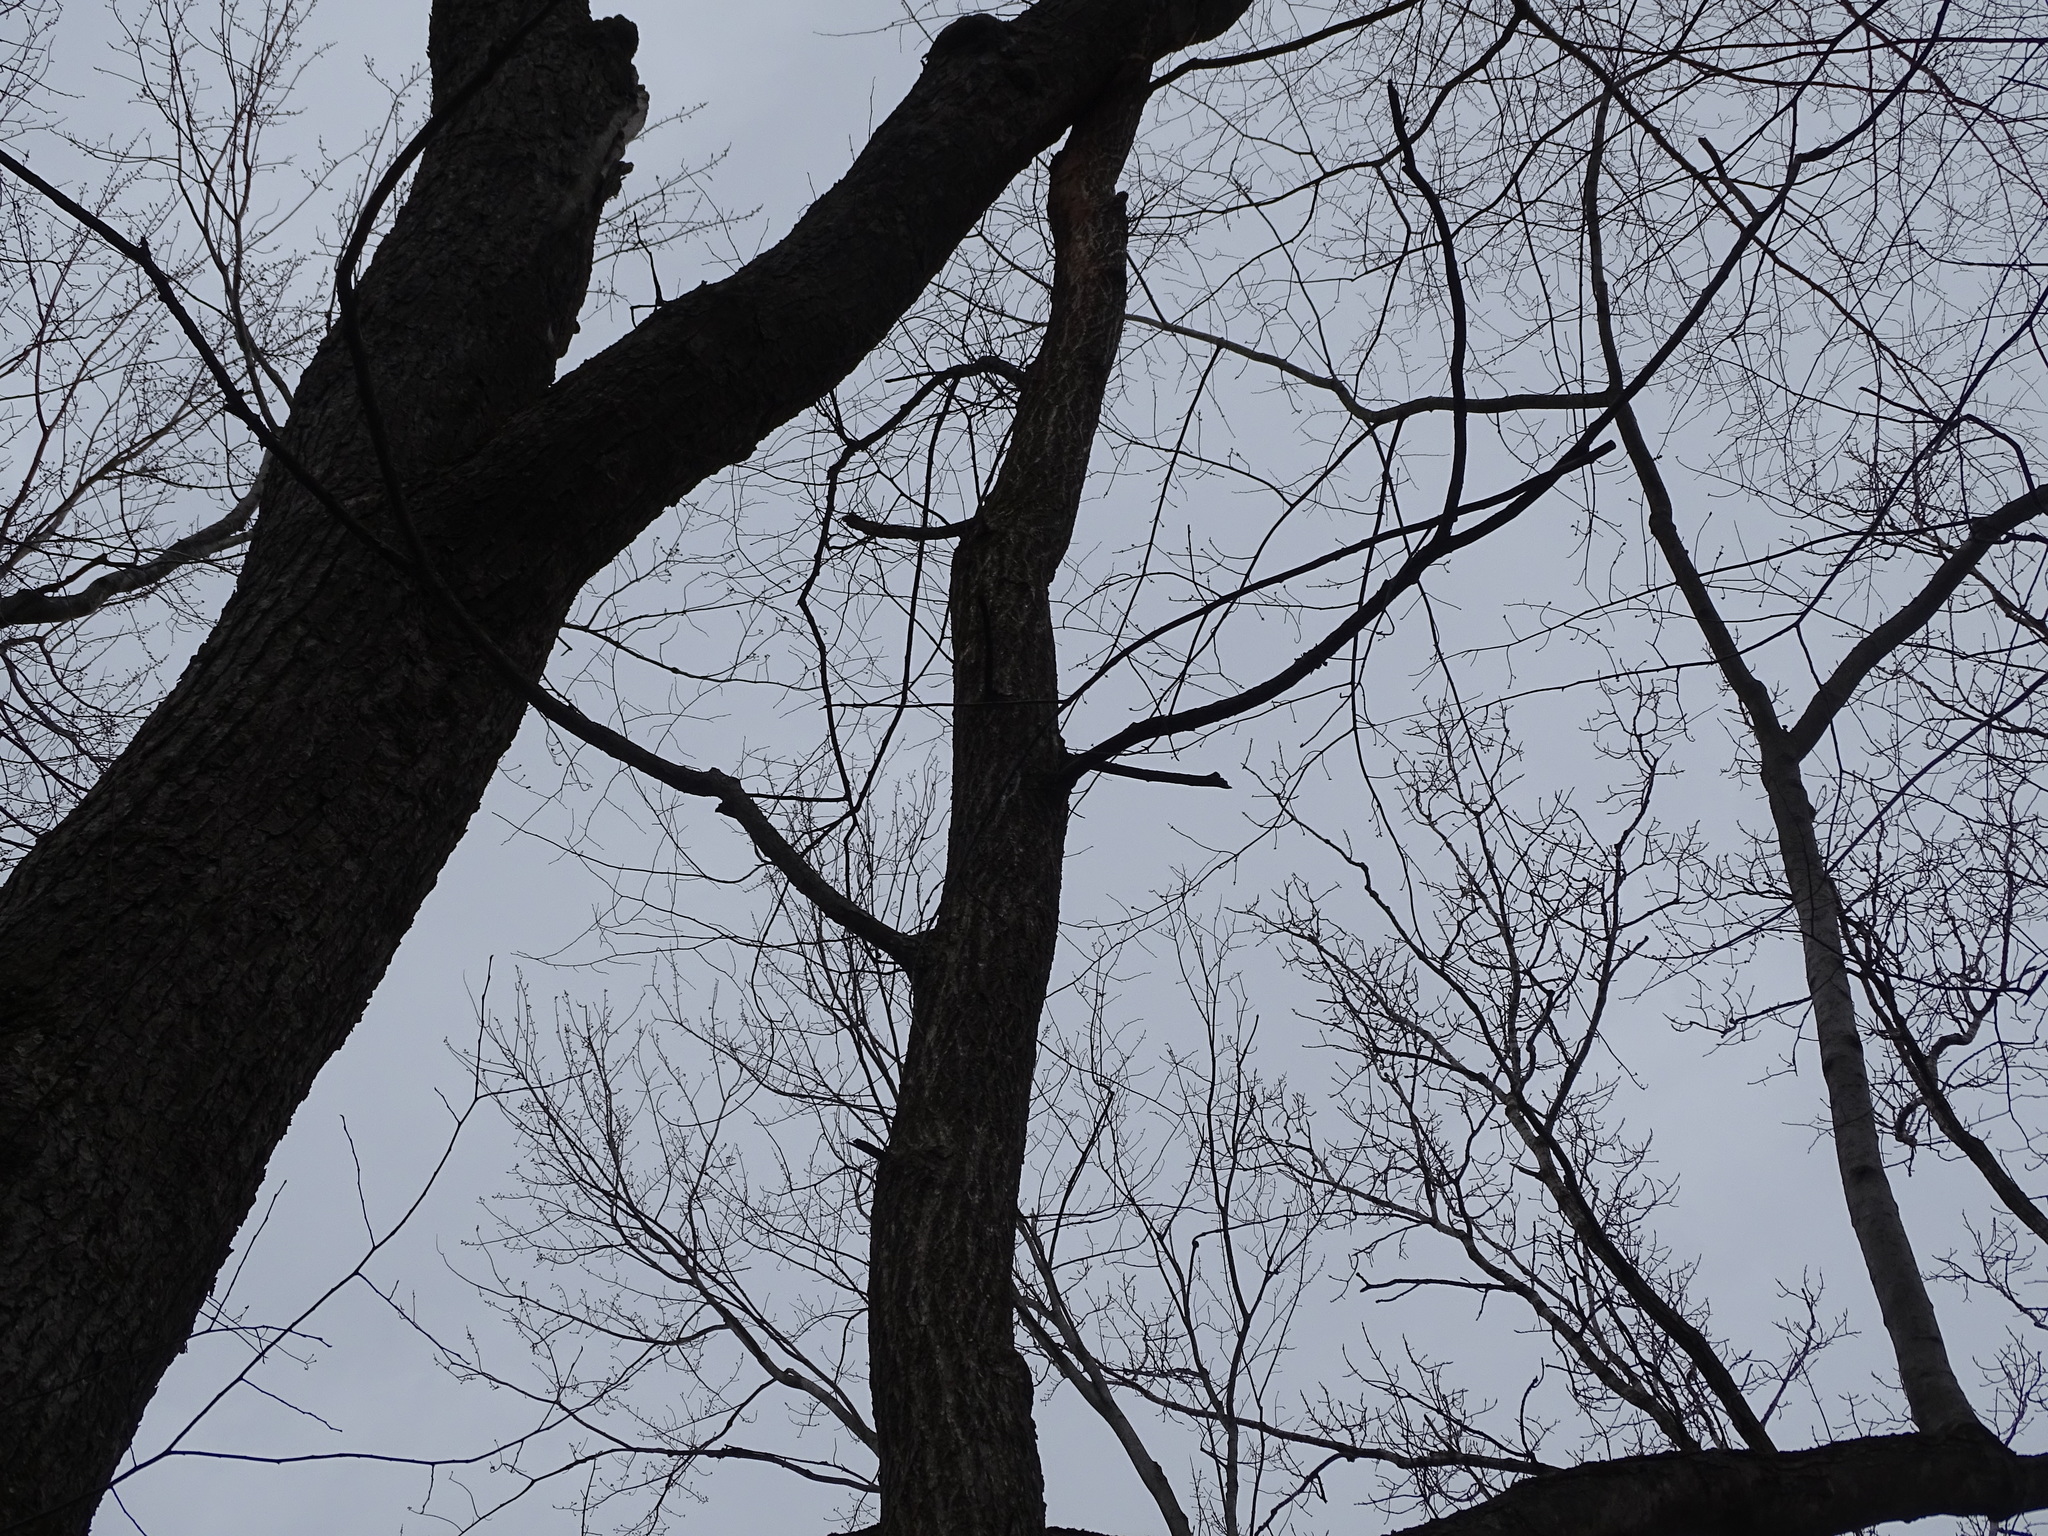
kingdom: Plantae
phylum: Tracheophyta
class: Magnoliopsida
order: Rosales
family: Ulmaceae
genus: Ulmus
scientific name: Ulmus americana
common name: American elm
